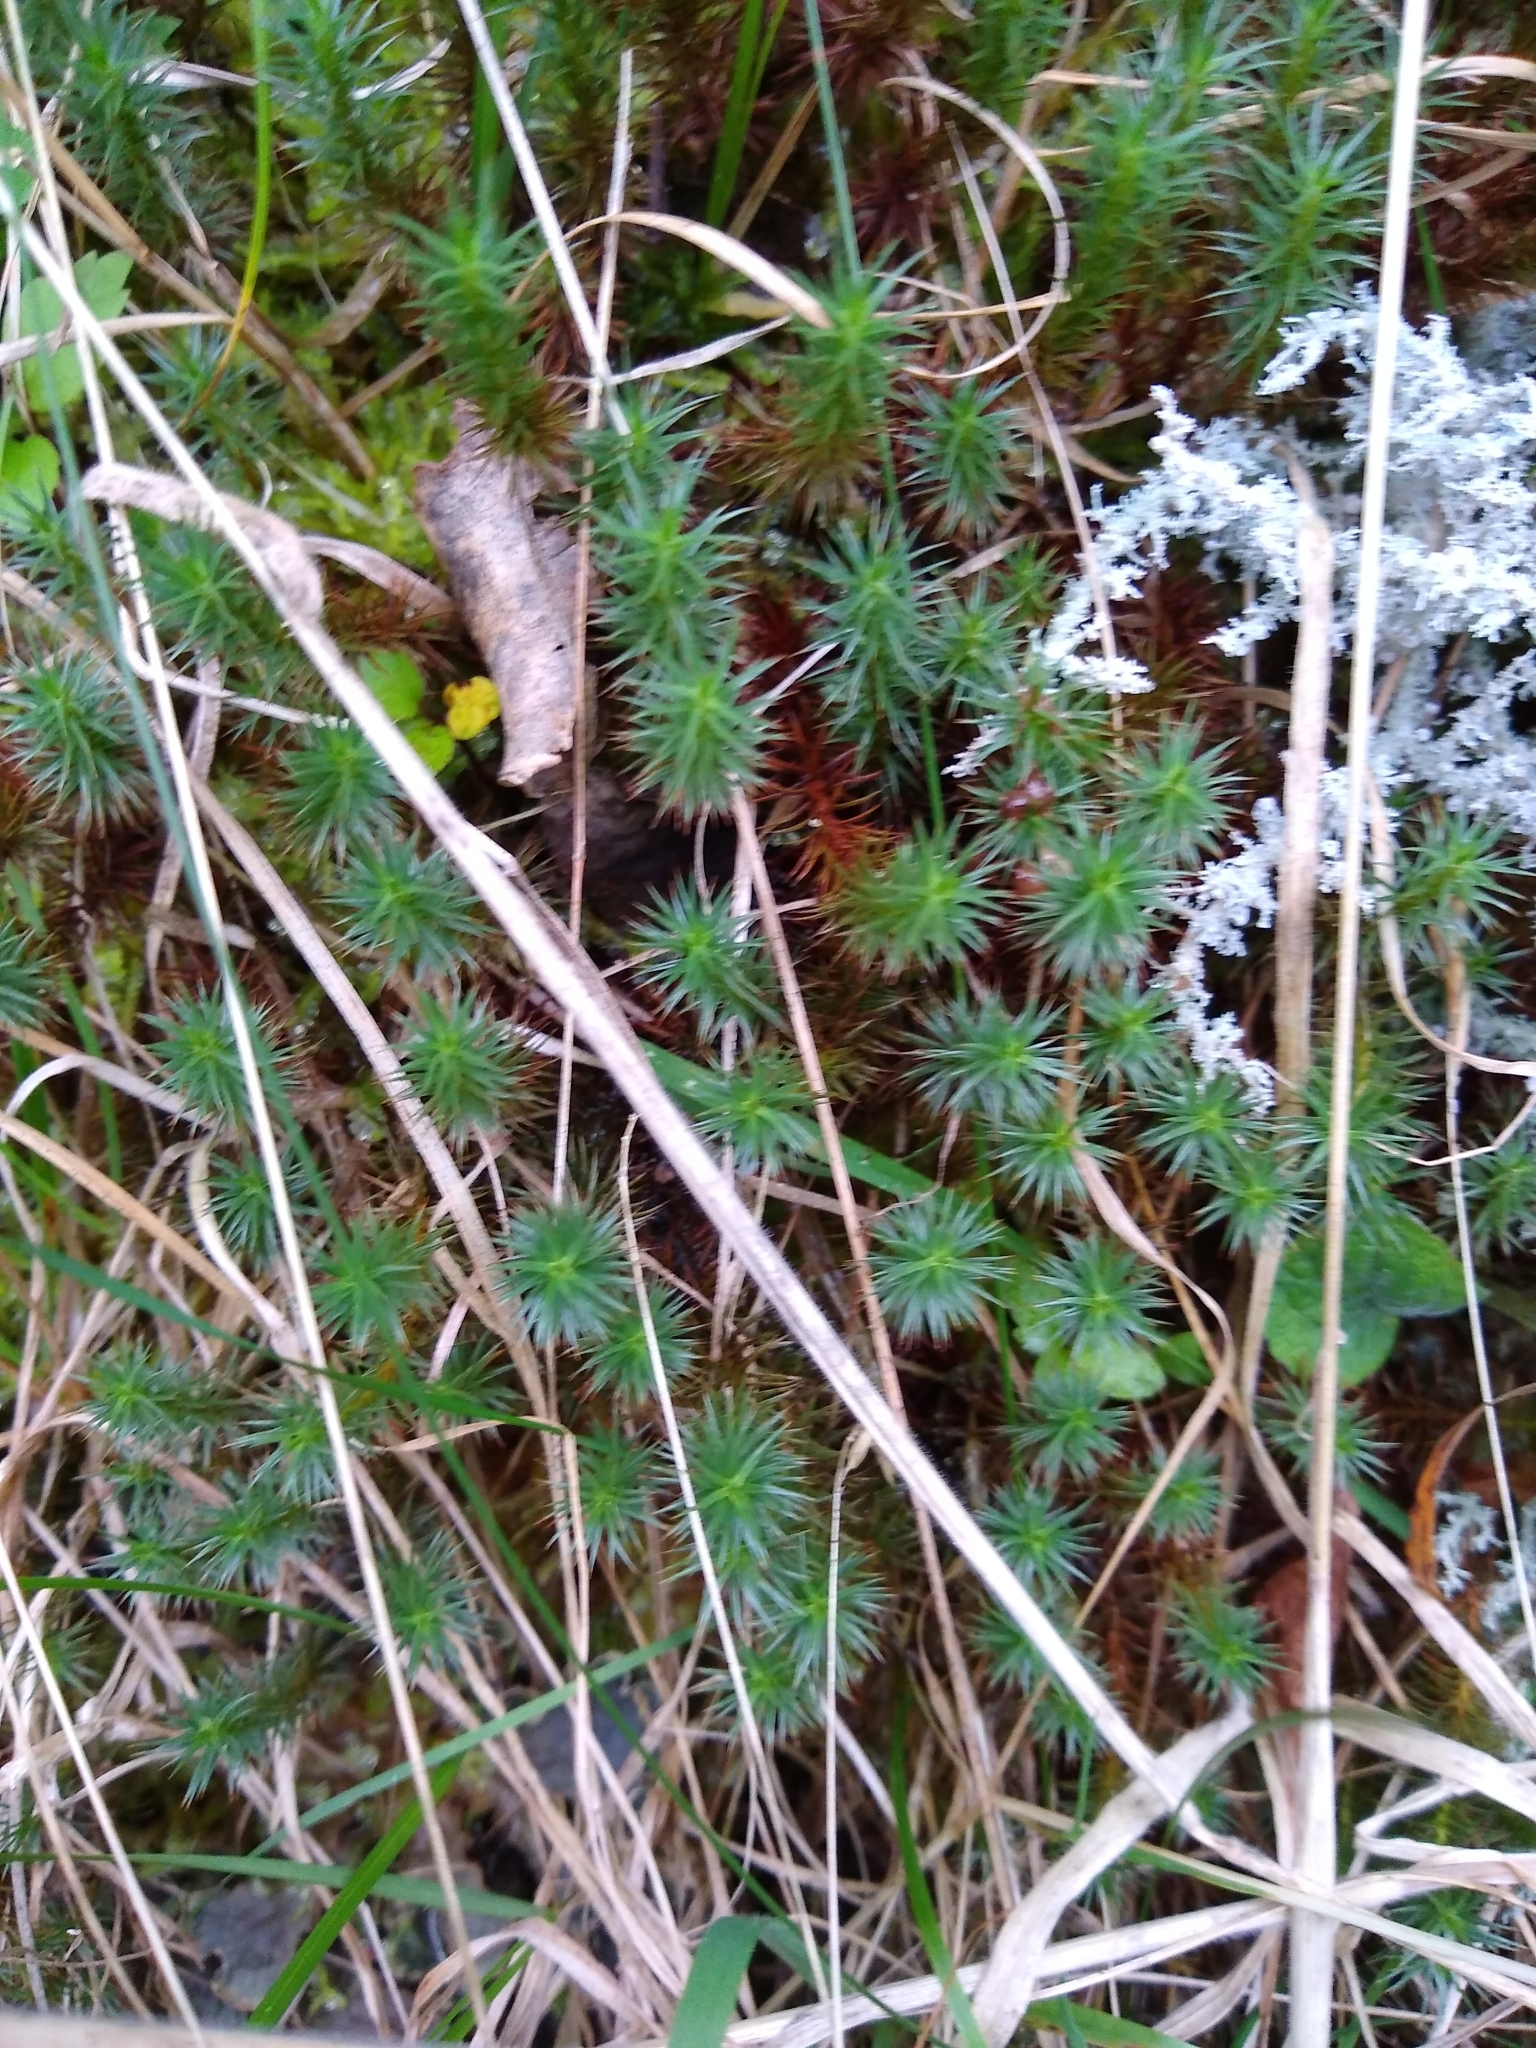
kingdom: Plantae
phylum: Bryophyta
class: Polytrichopsida
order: Polytrichales
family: Polytrichaceae
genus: Polytrichum
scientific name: Polytrichum juniperinum
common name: Juniper haircap moss
